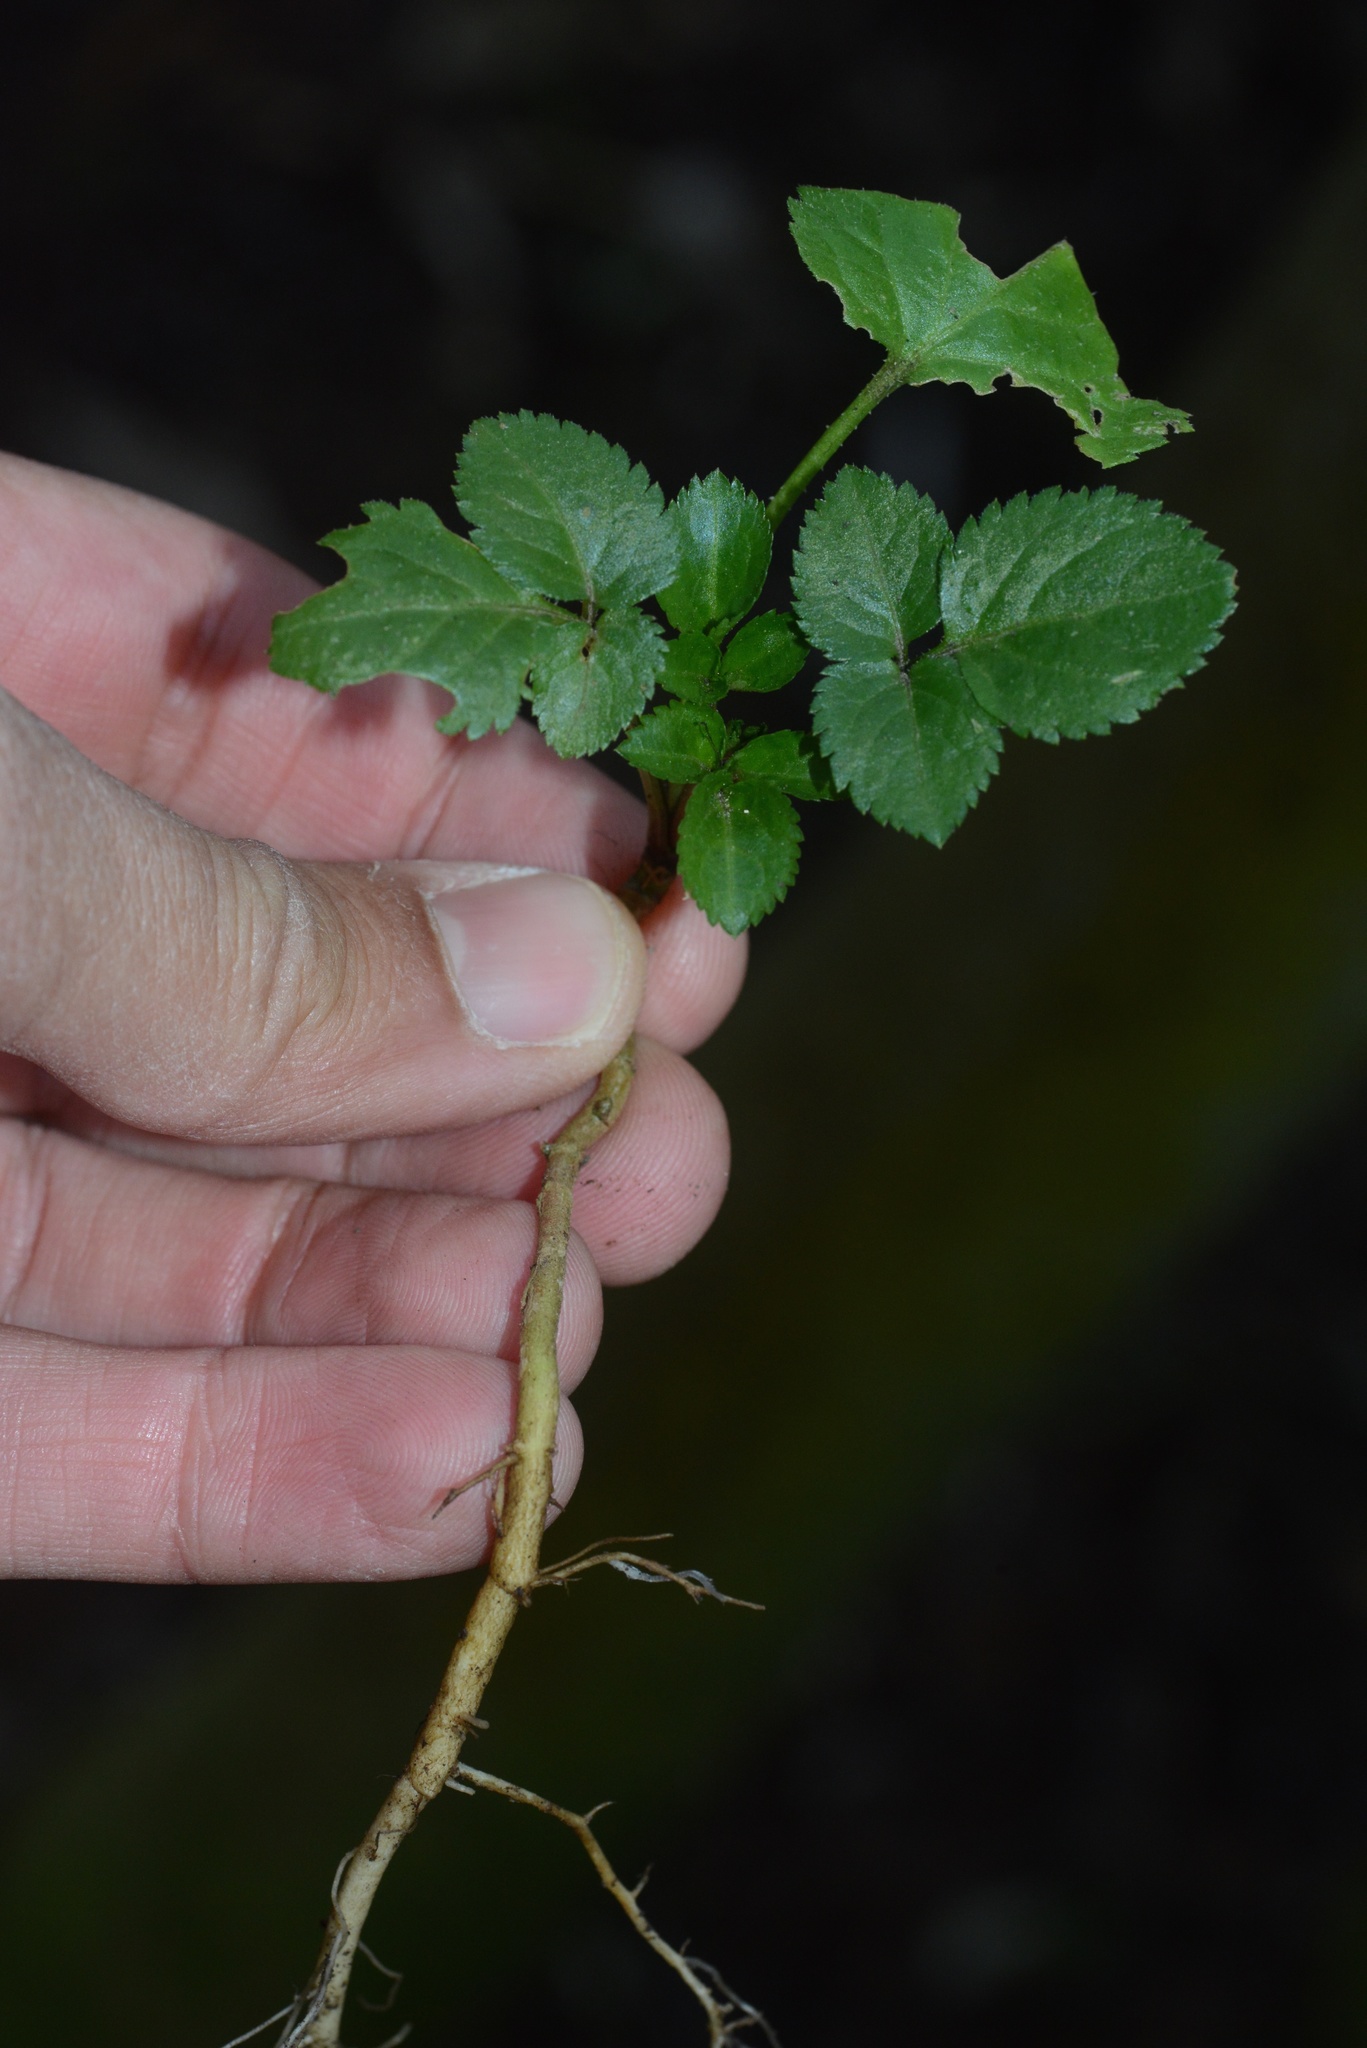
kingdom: Plantae
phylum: Tracheophyta
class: Magnoliopsida
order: Dipsacales
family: Viburnaceae
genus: Sambucus
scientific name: Sambucus nigra
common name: Elder
